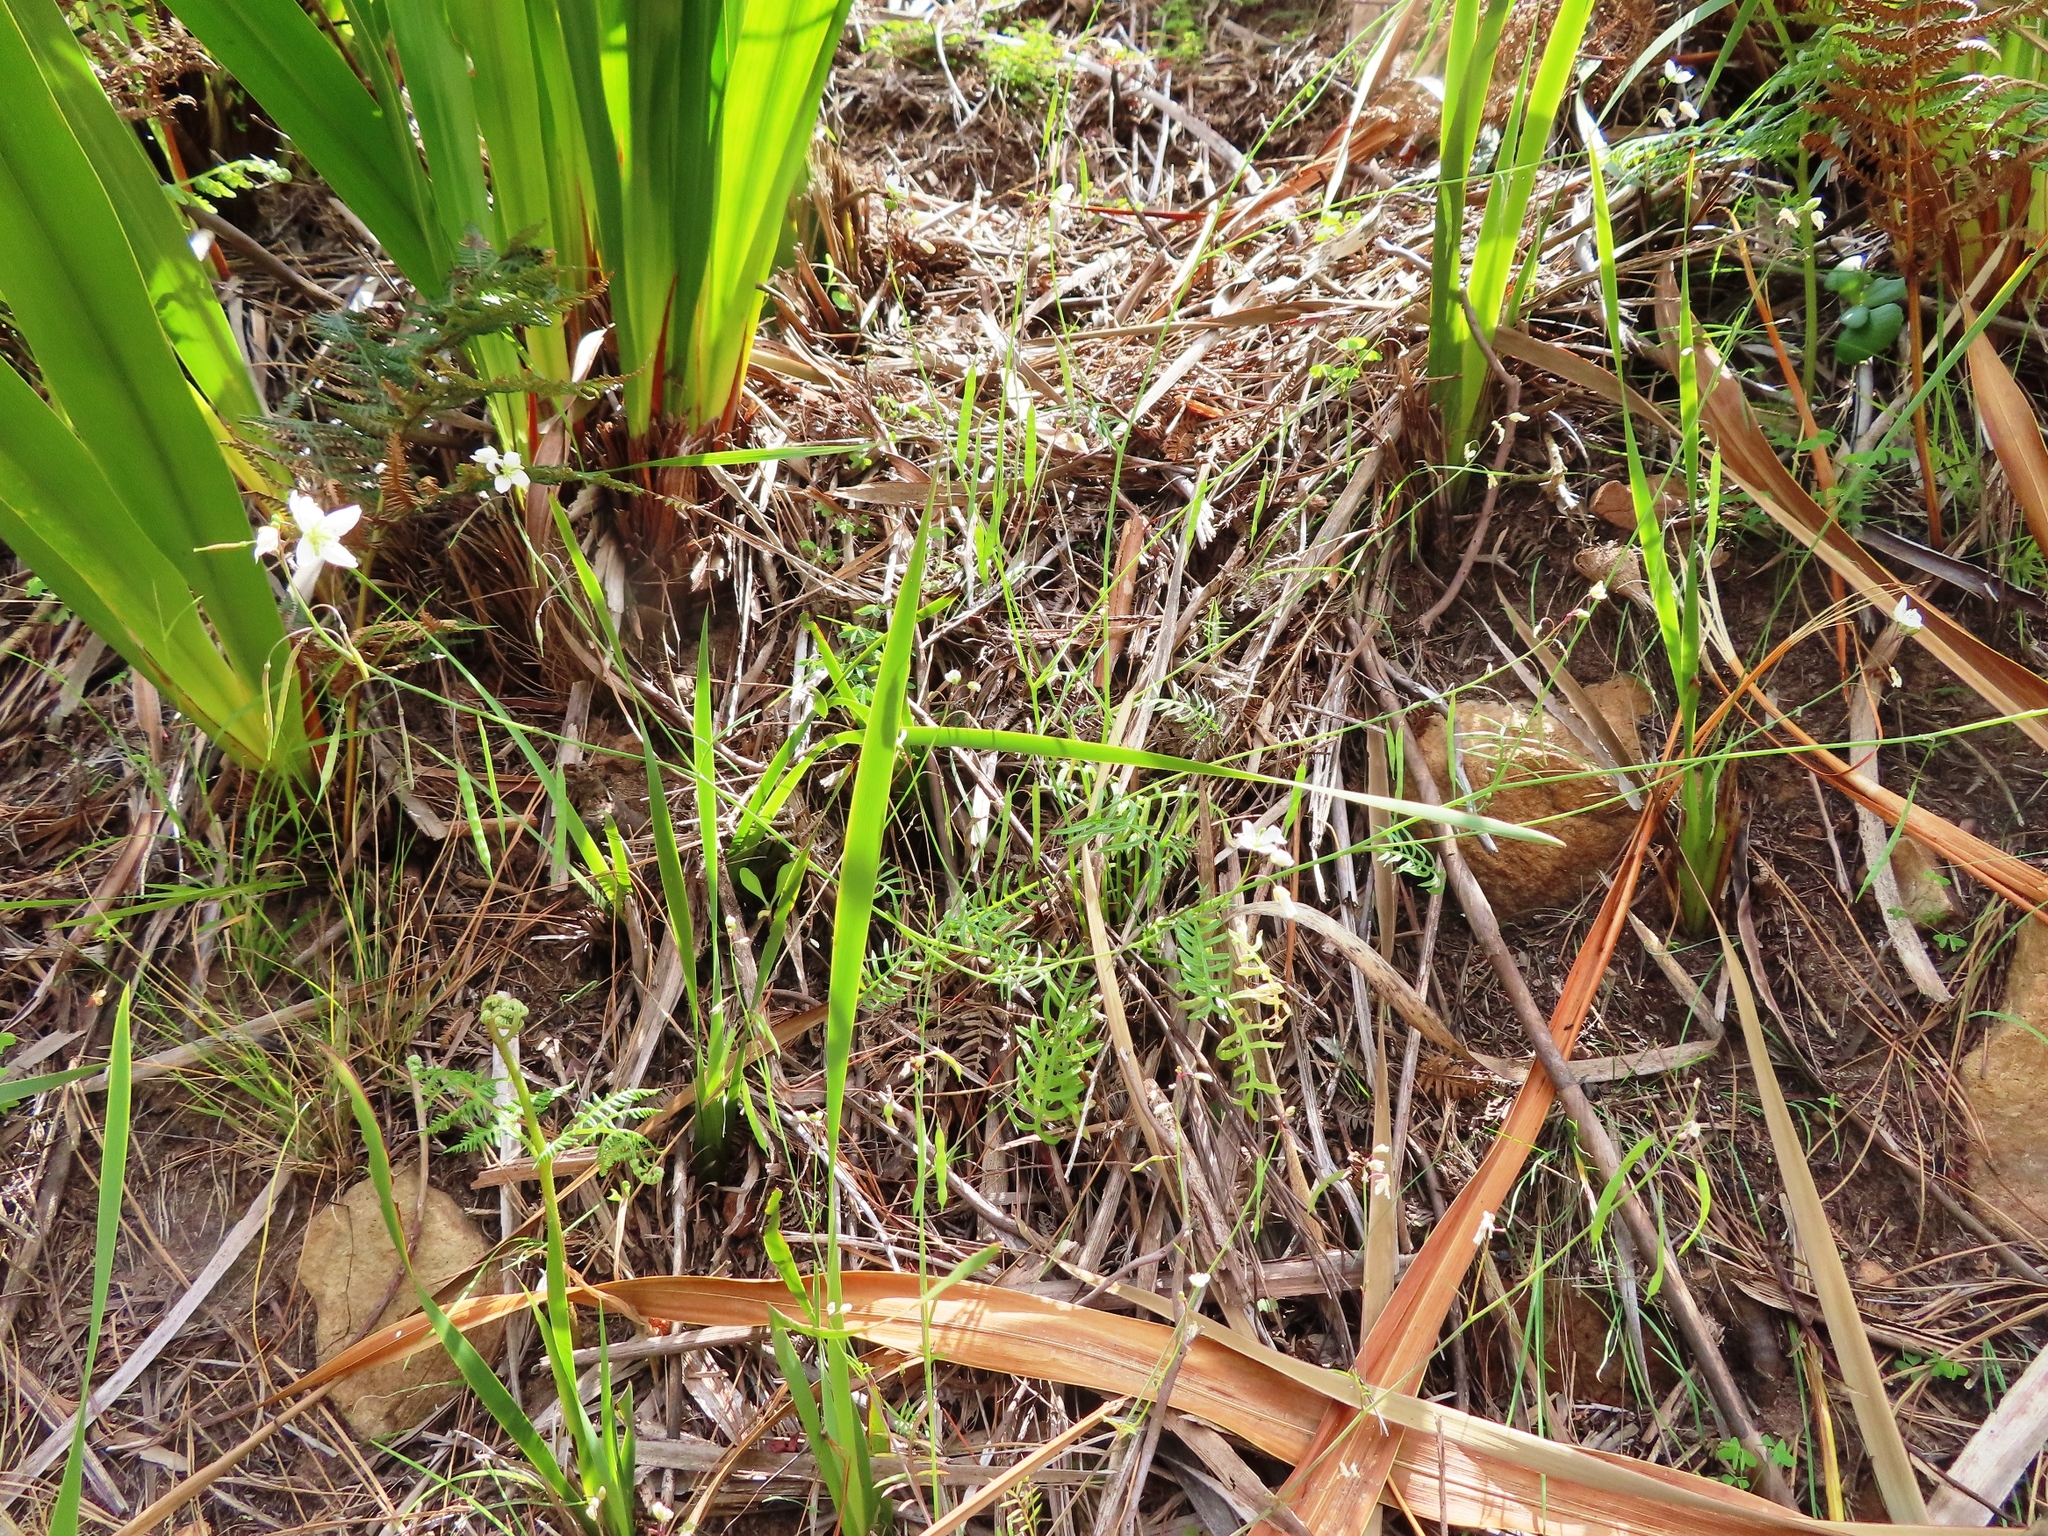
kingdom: Plantae
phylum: Tracheophyta
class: Magnoliopsida
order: Brassicales
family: Brassicaceae
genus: Heliophila
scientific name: Heliophila meyeri
